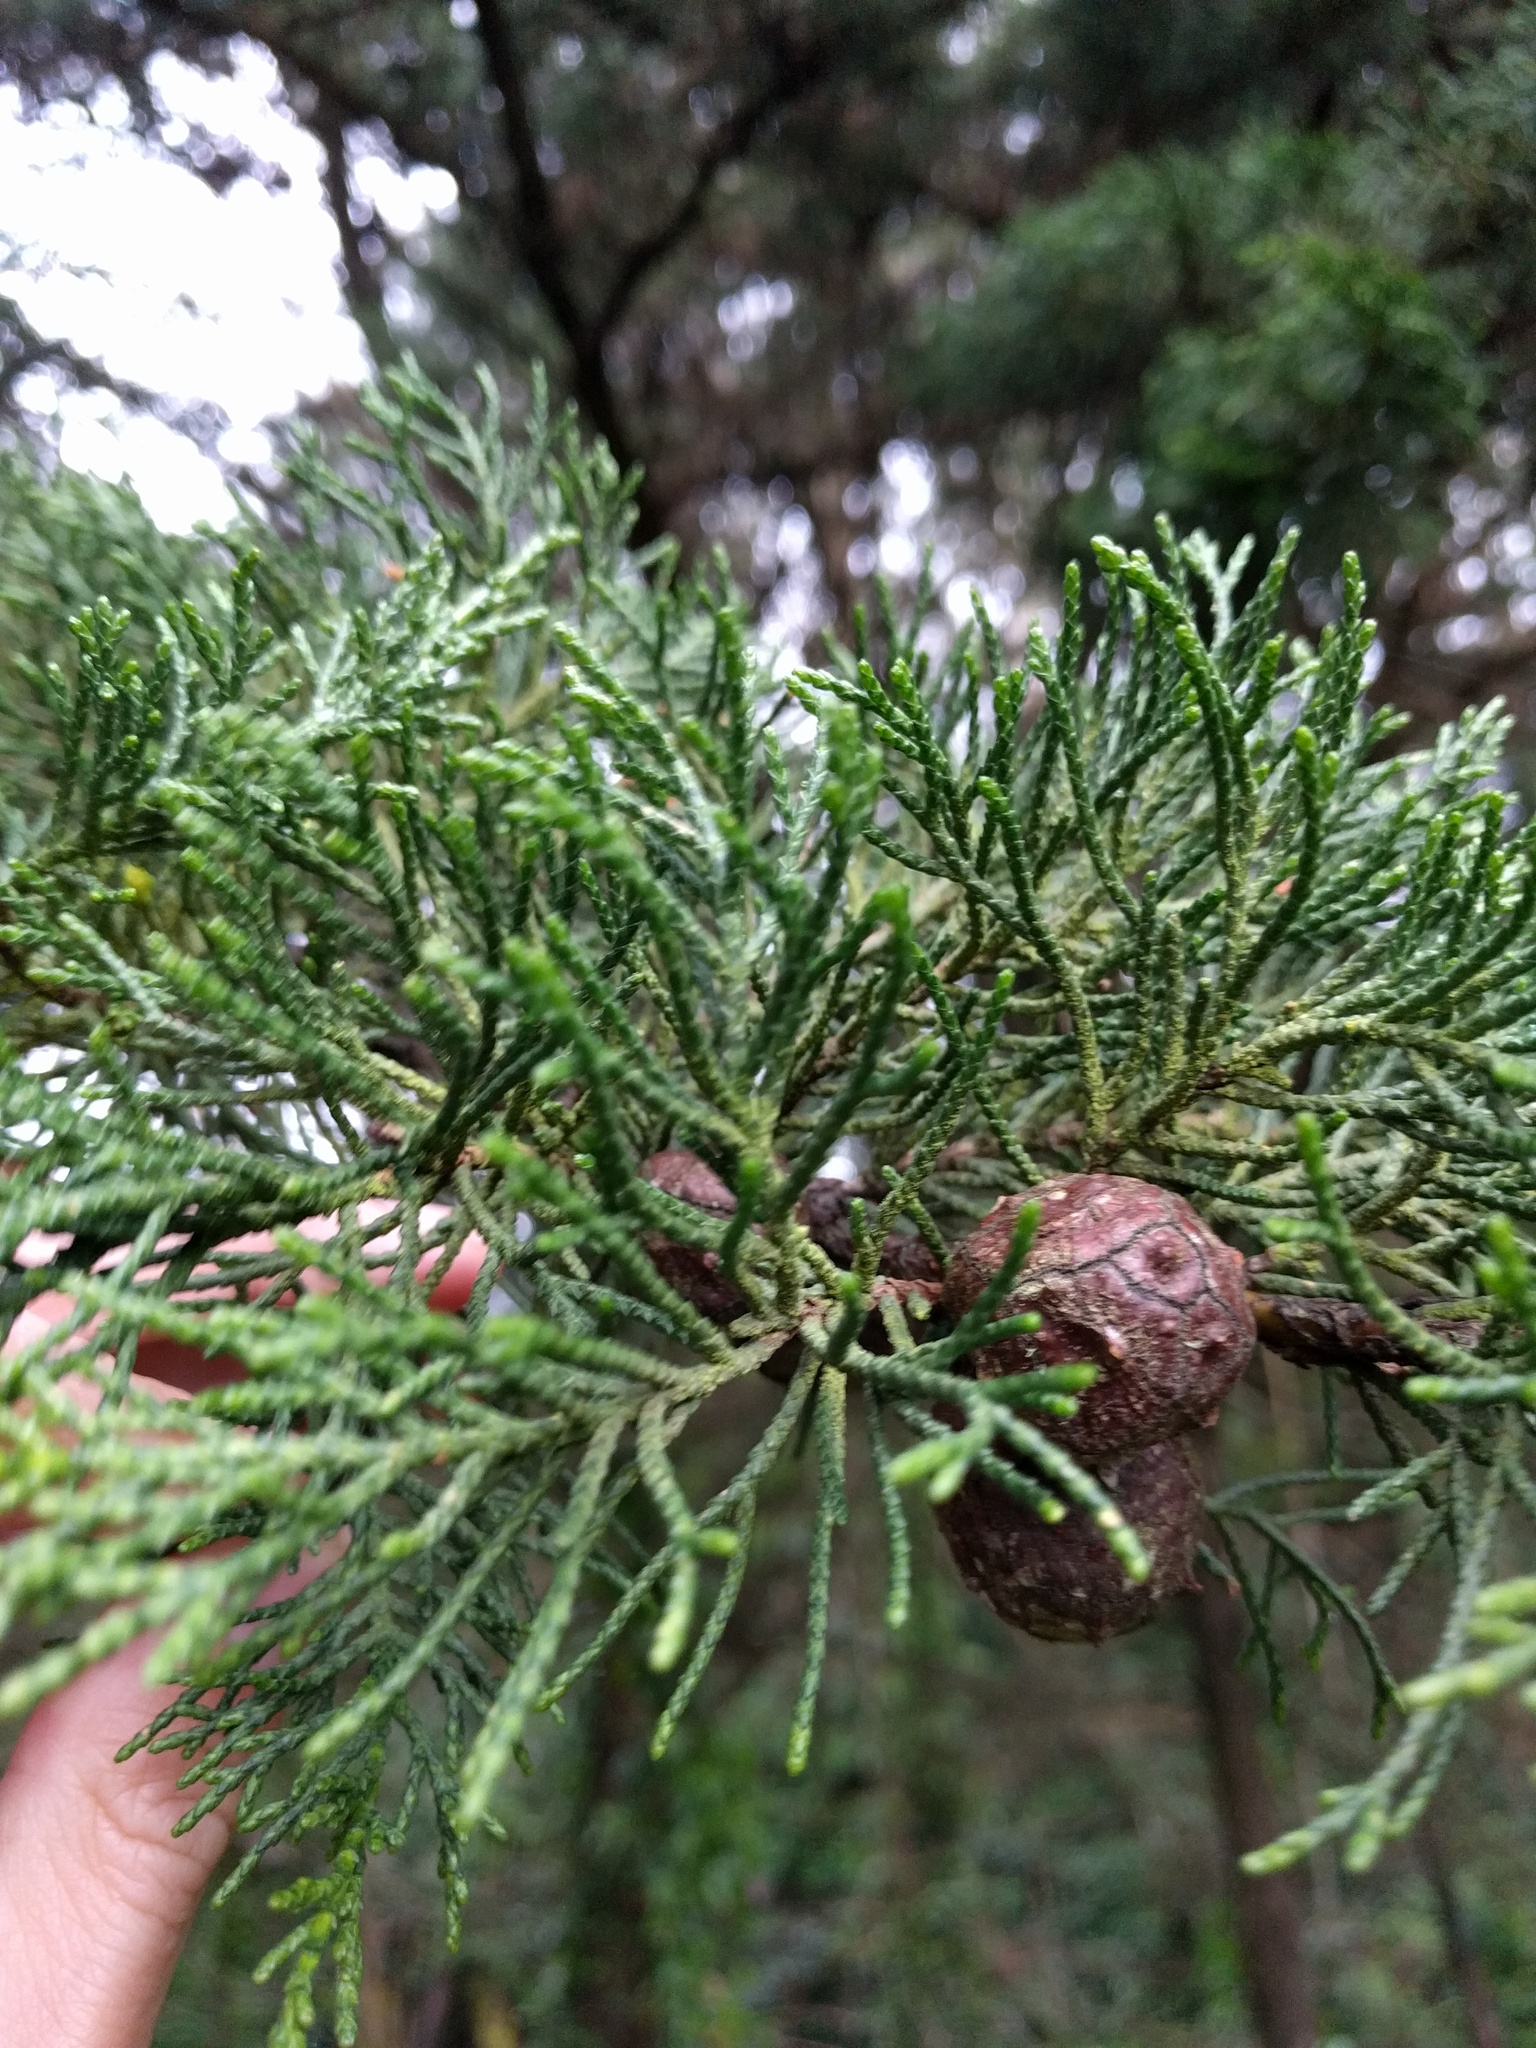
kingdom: Plantae
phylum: Tracheophyta
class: Pinopsida
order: Pinales
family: Cupressaceae
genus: Cupressus
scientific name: Cupressus macrocarpa
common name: Monterey cypress
